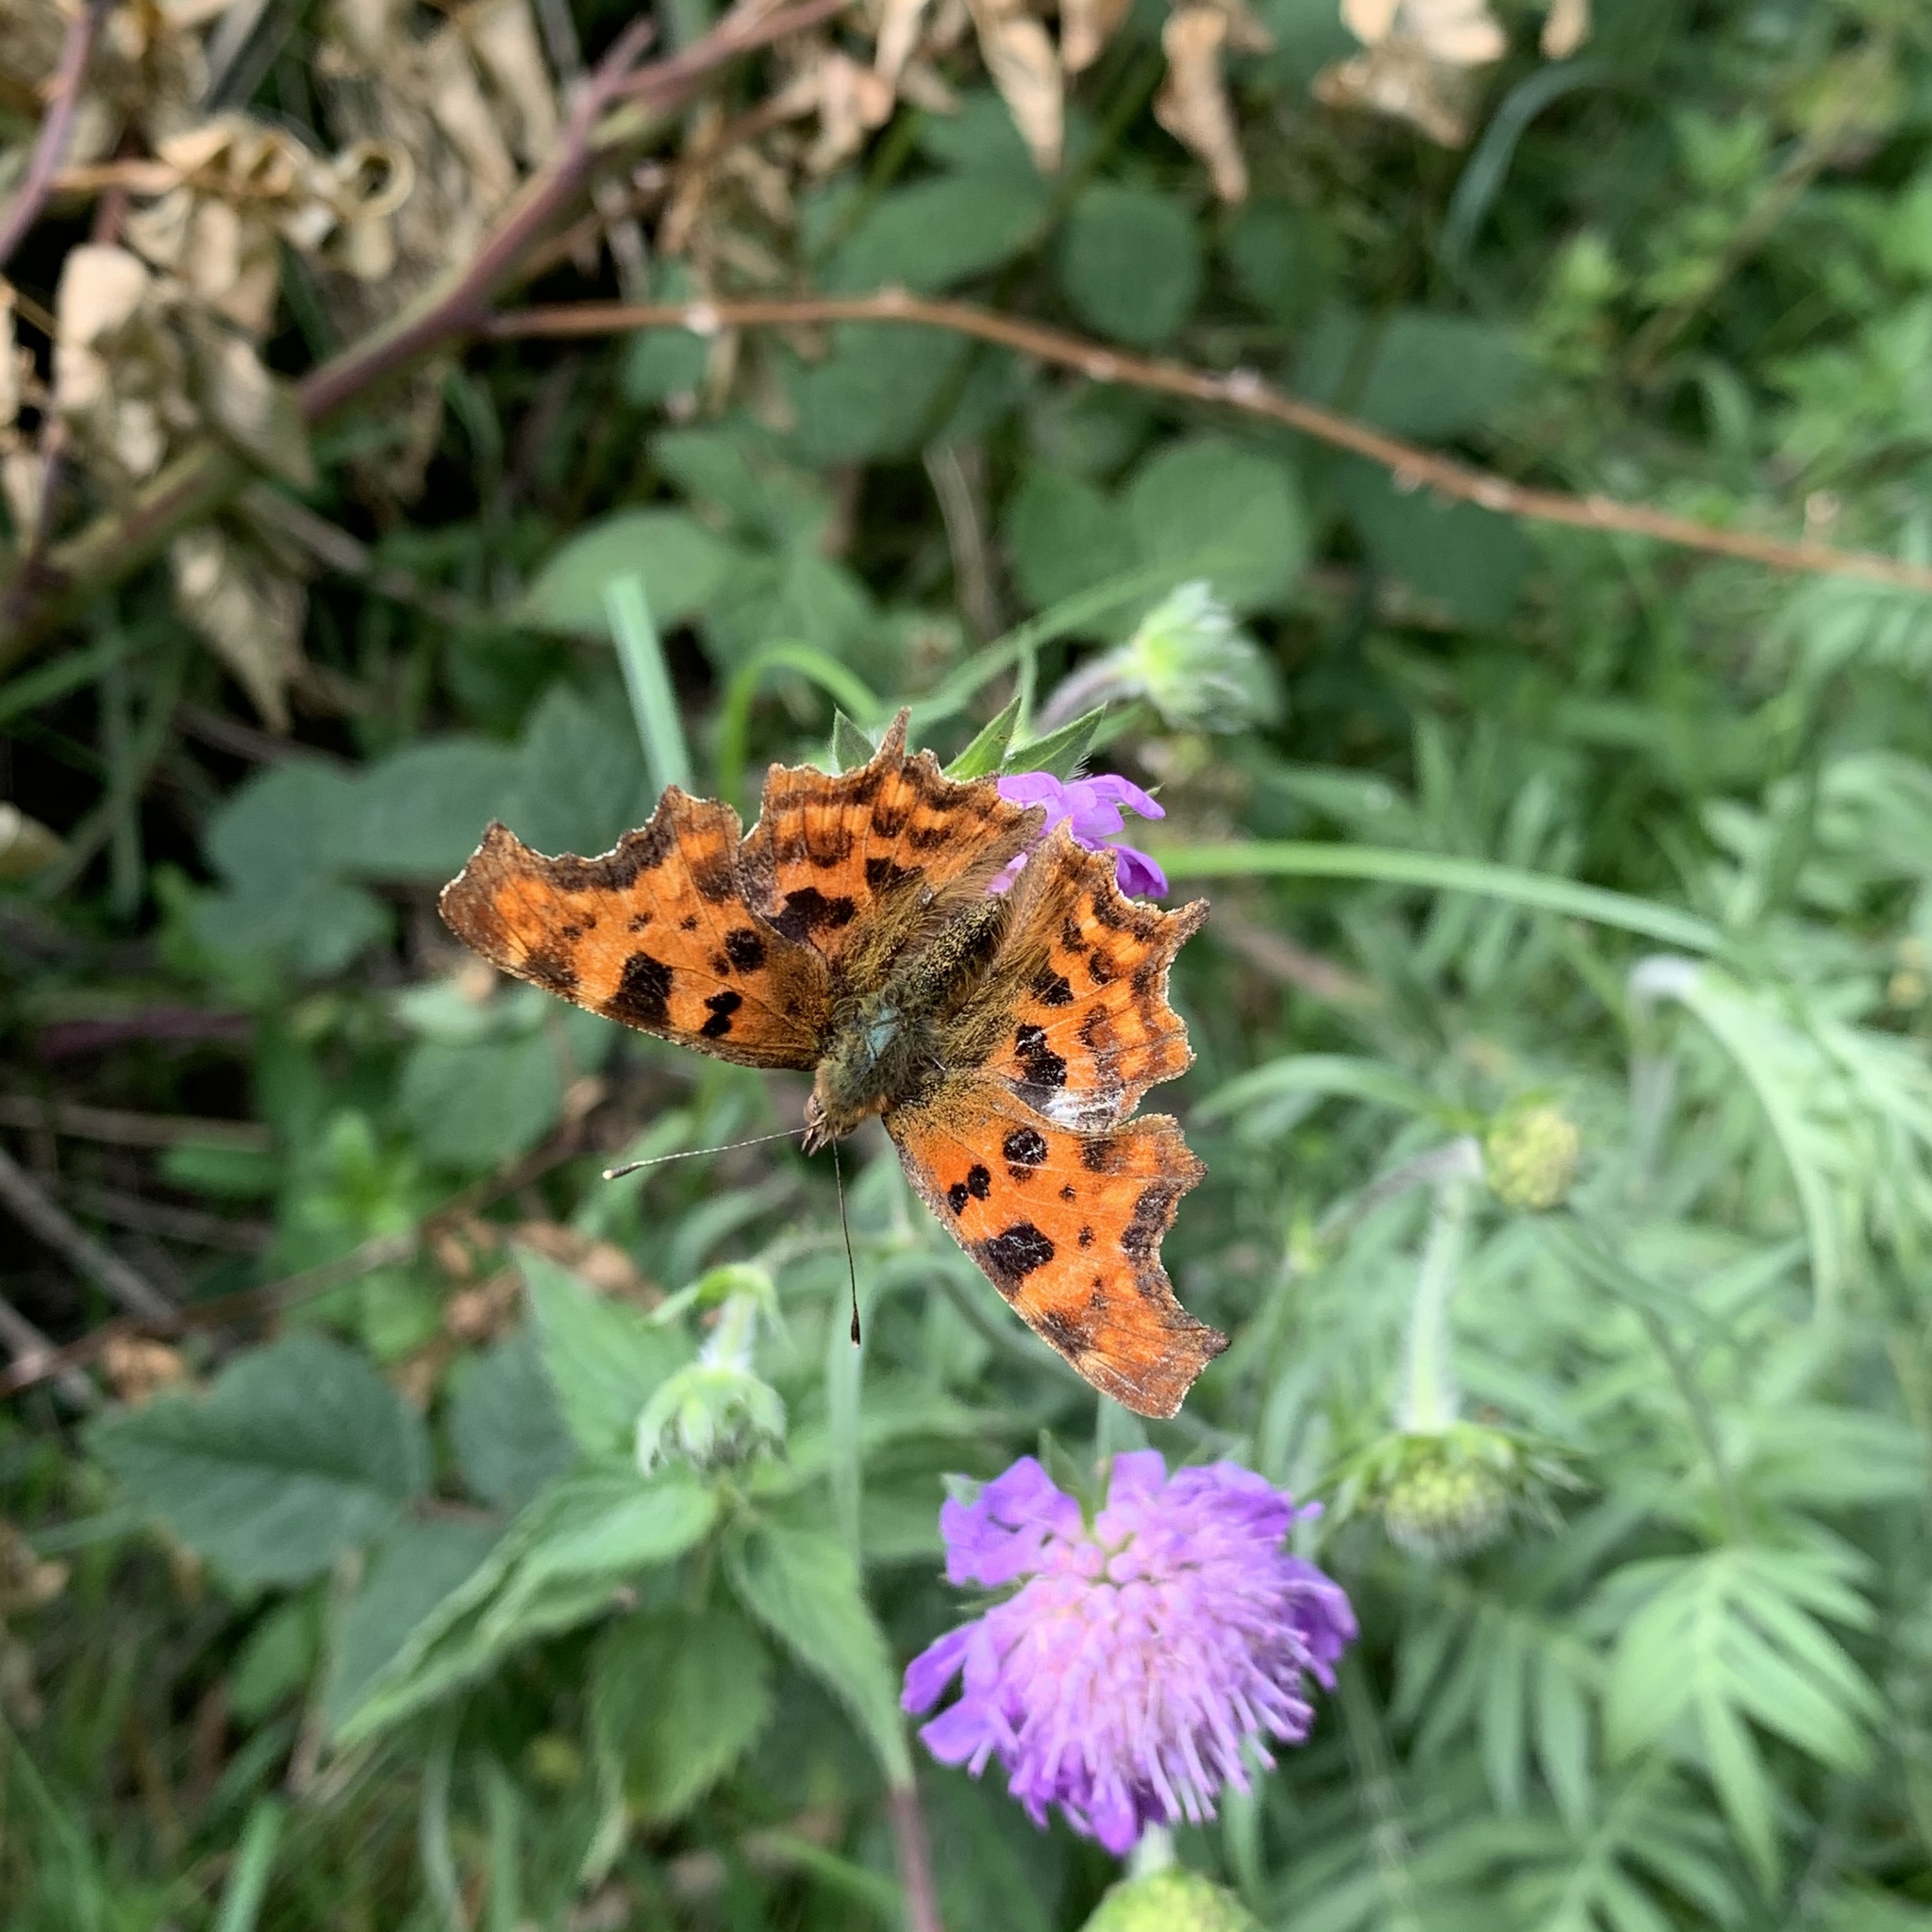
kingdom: Animalia
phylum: Arthropoda
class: Insecta
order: Lepidoptera
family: Nymphalidae
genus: Polygonia
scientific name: Polygonia c-album
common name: Comma
